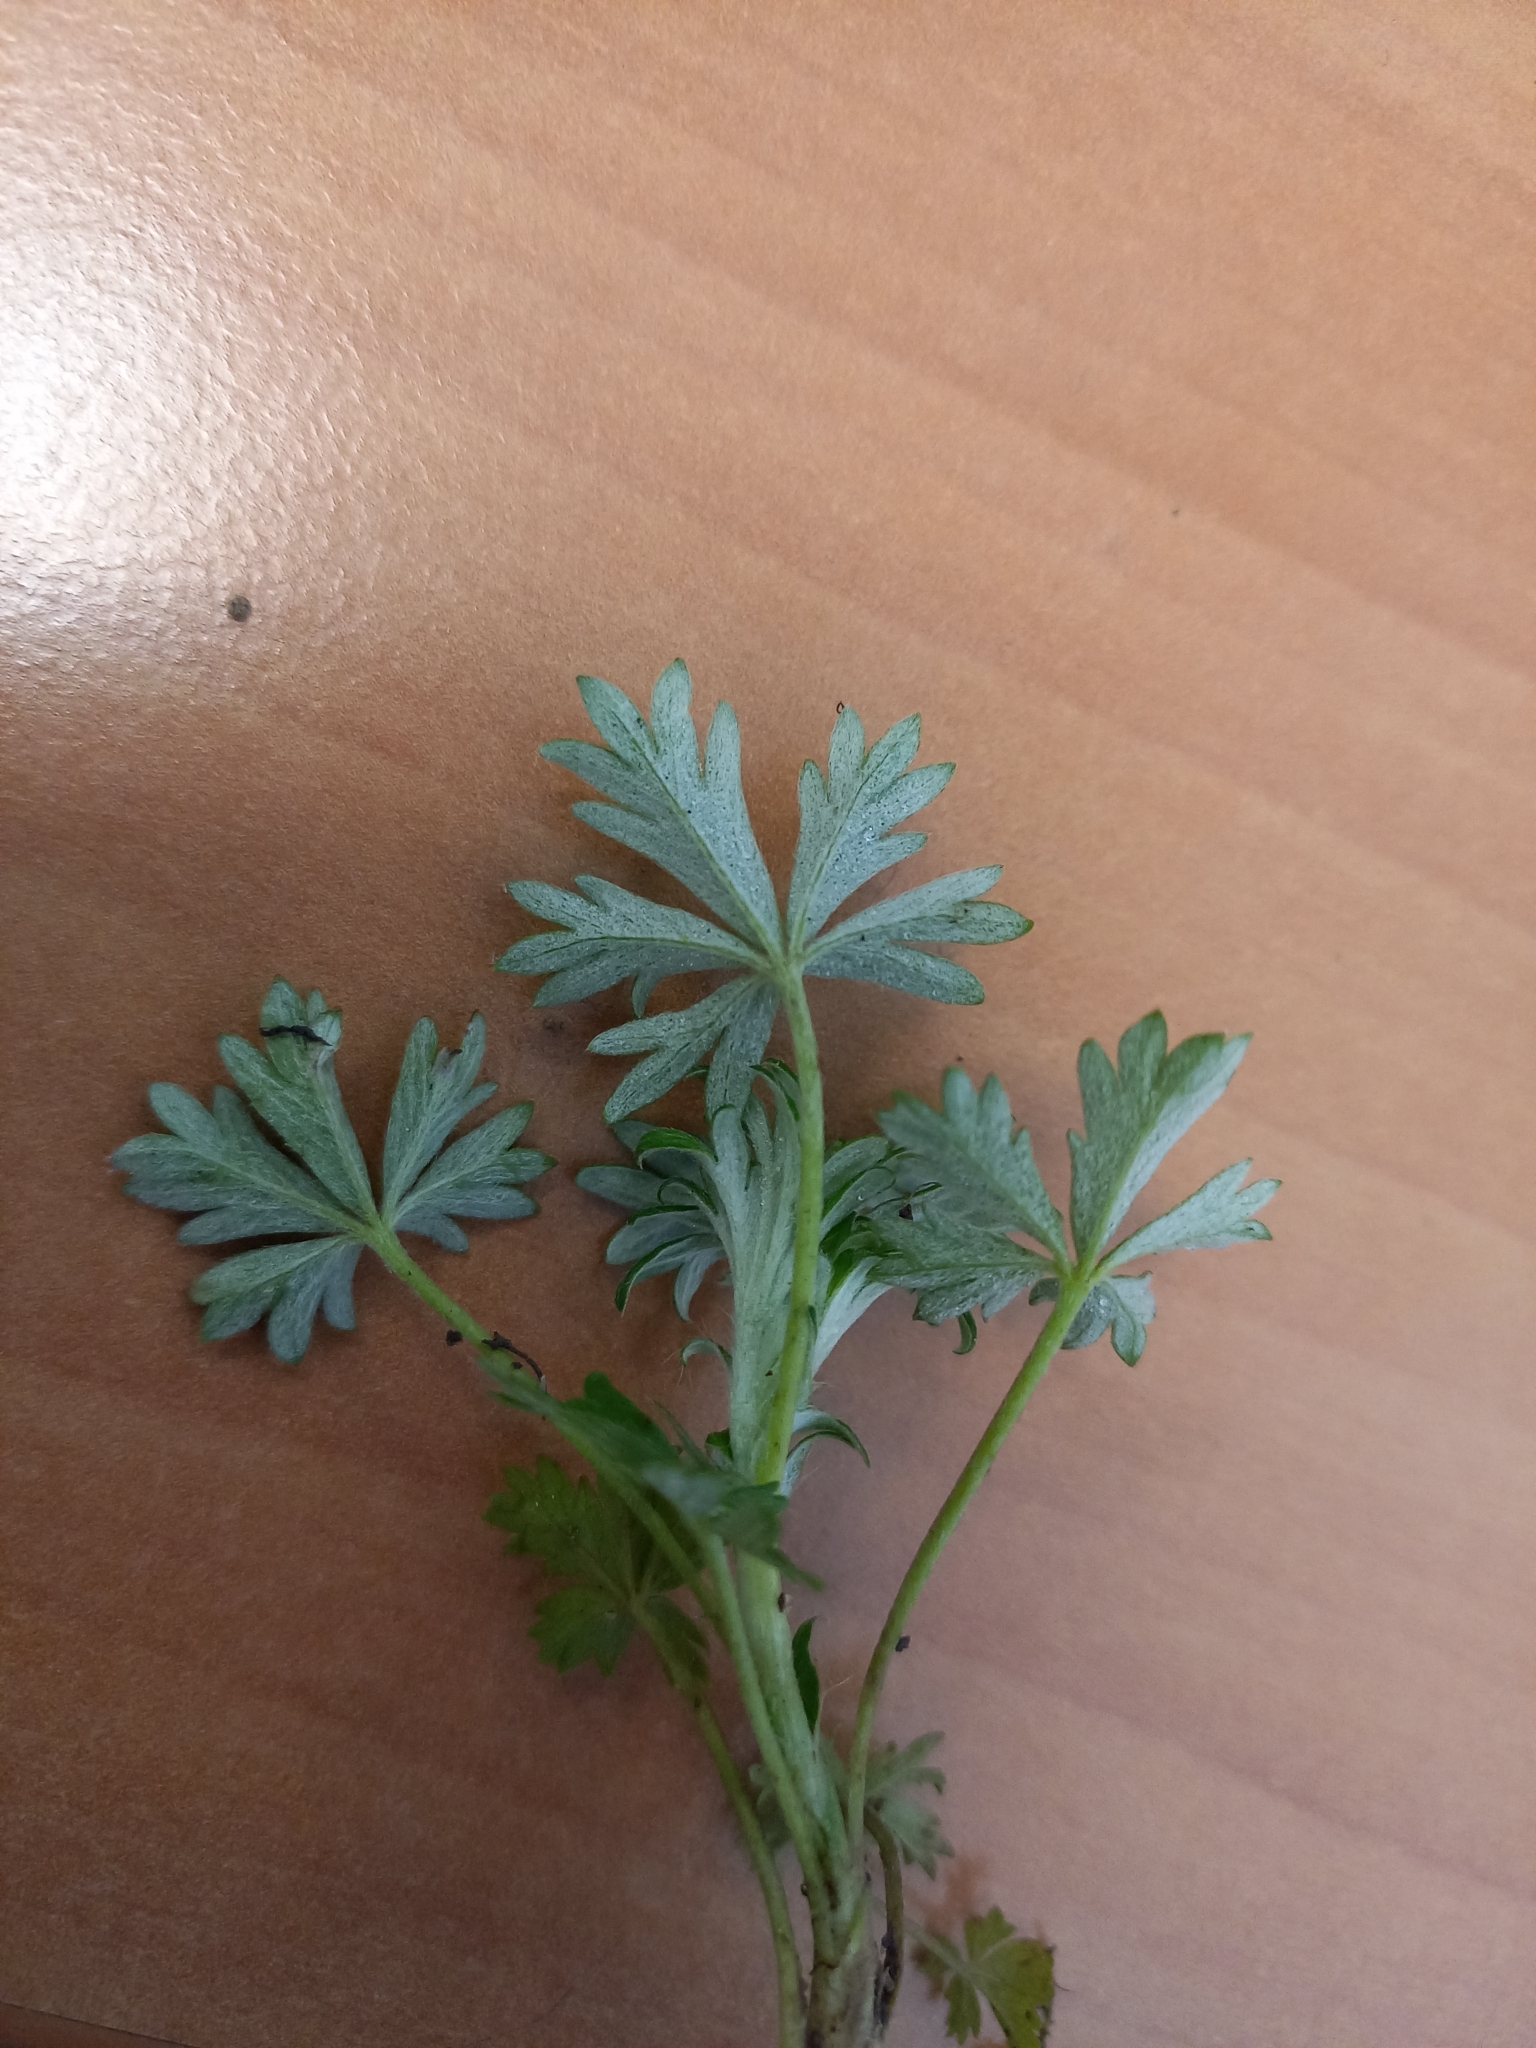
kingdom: Plantae
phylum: Tracheophyta
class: Magnoliopsida
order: Rosales
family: Rosaceae
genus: Potentilla
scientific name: Potentilla argentea
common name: Hoary cinquefoil
